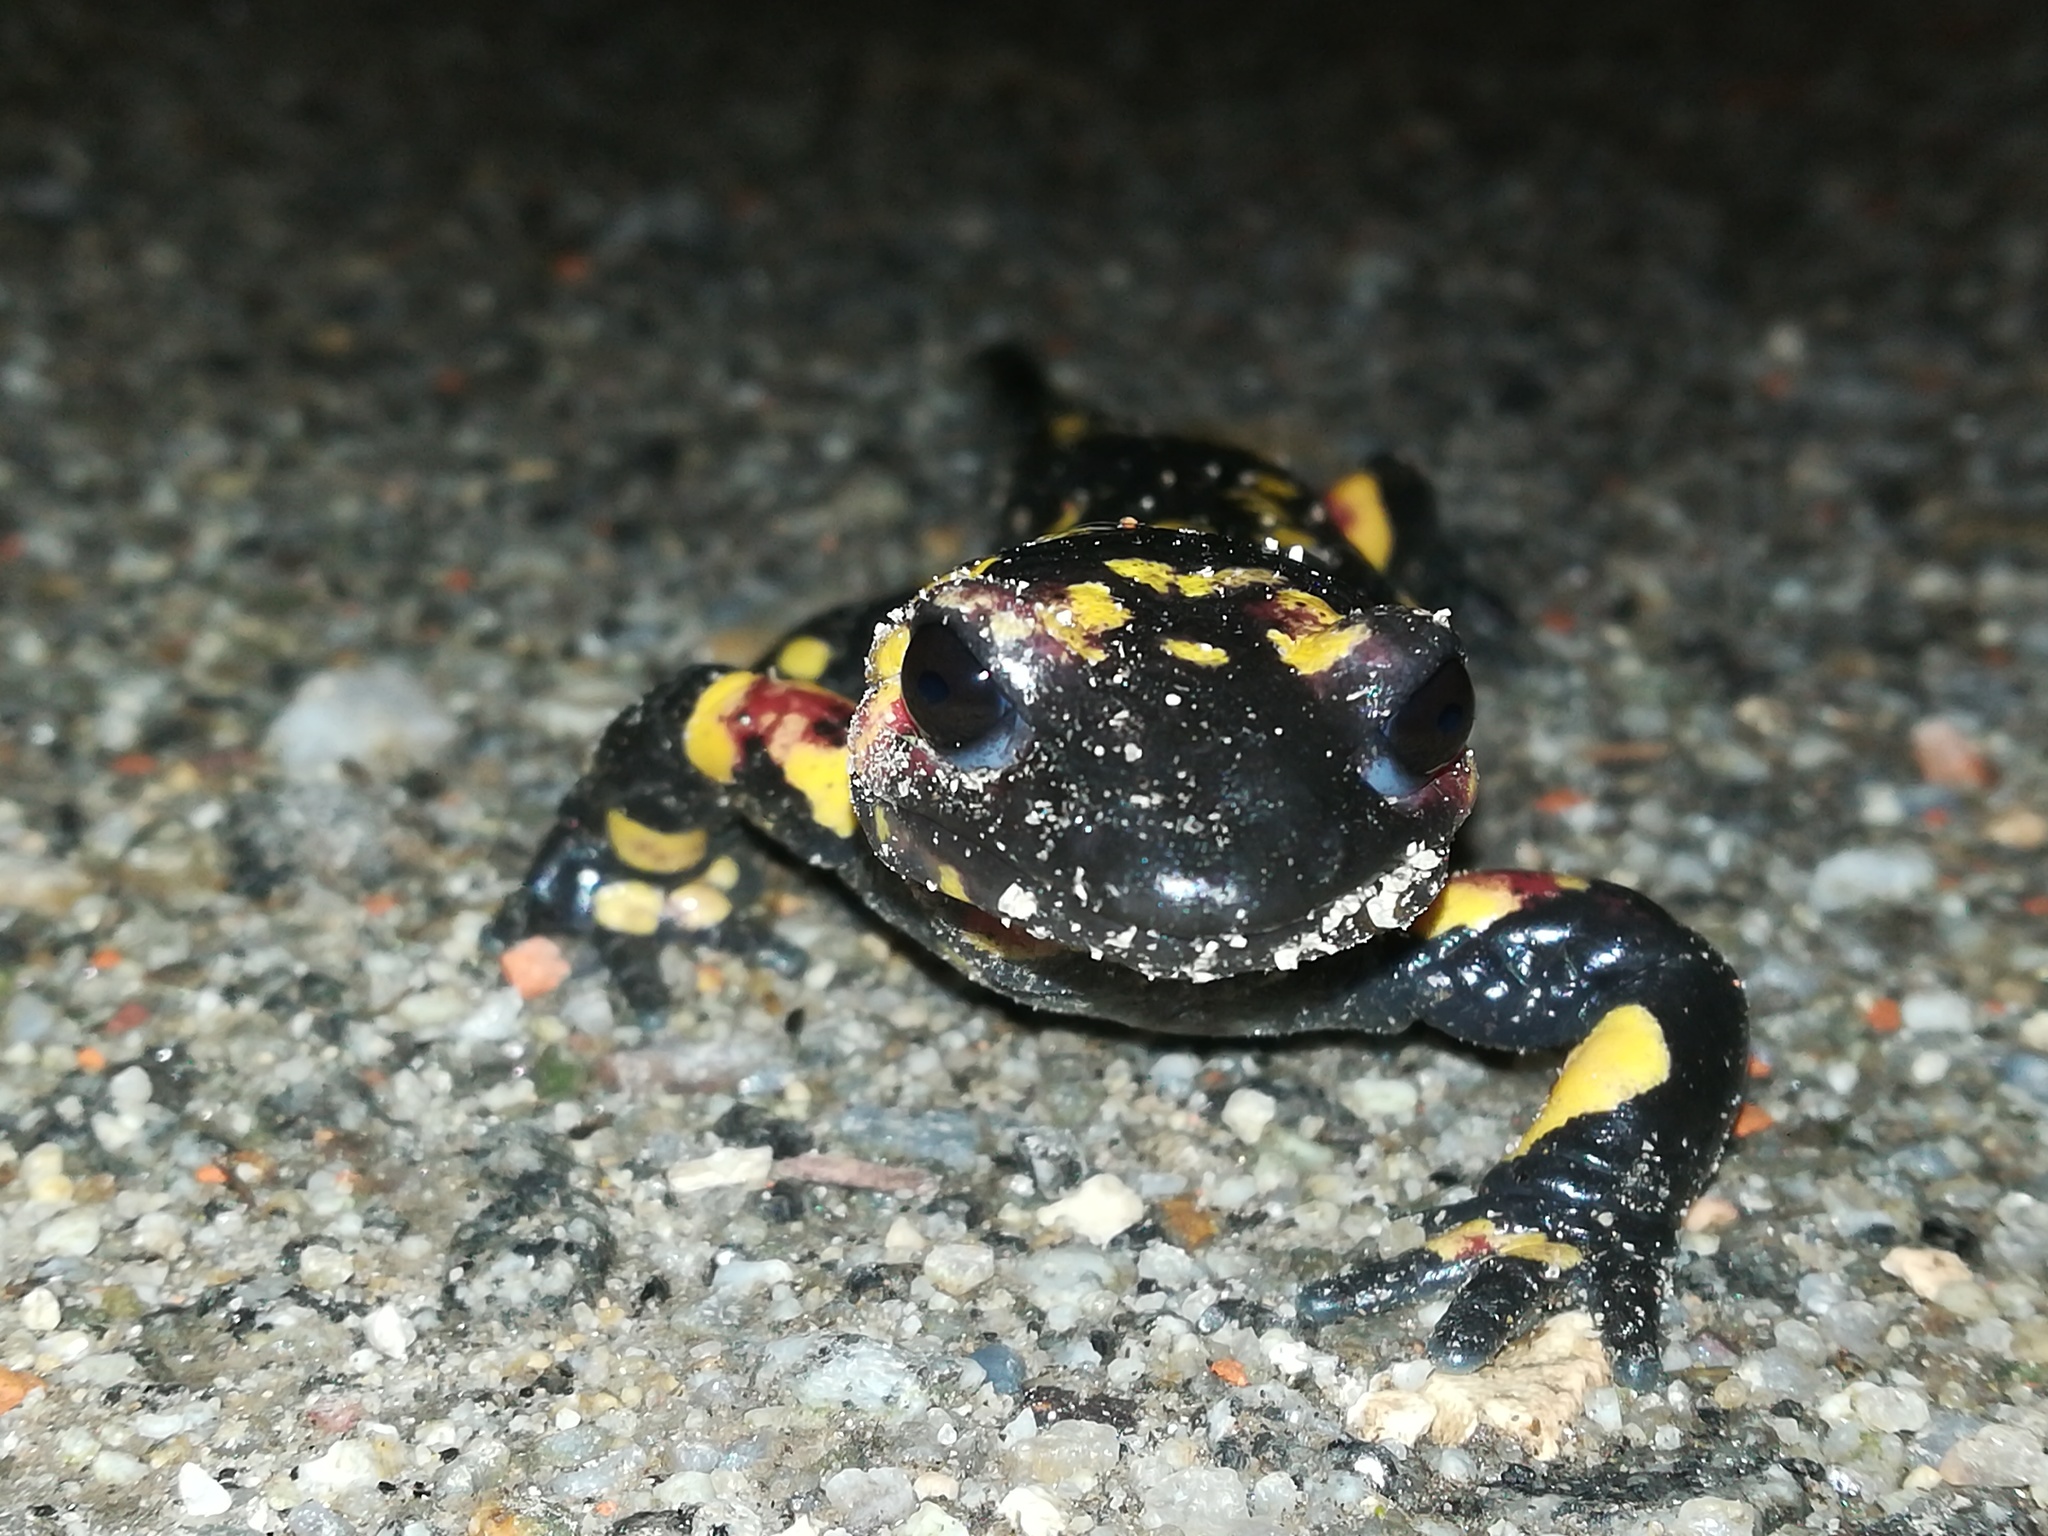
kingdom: Animalia
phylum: Chordata
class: Amphibia
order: Caudata
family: Salamandridae
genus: Salamandra
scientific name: Salamandra salamandra
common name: Fire salamander
